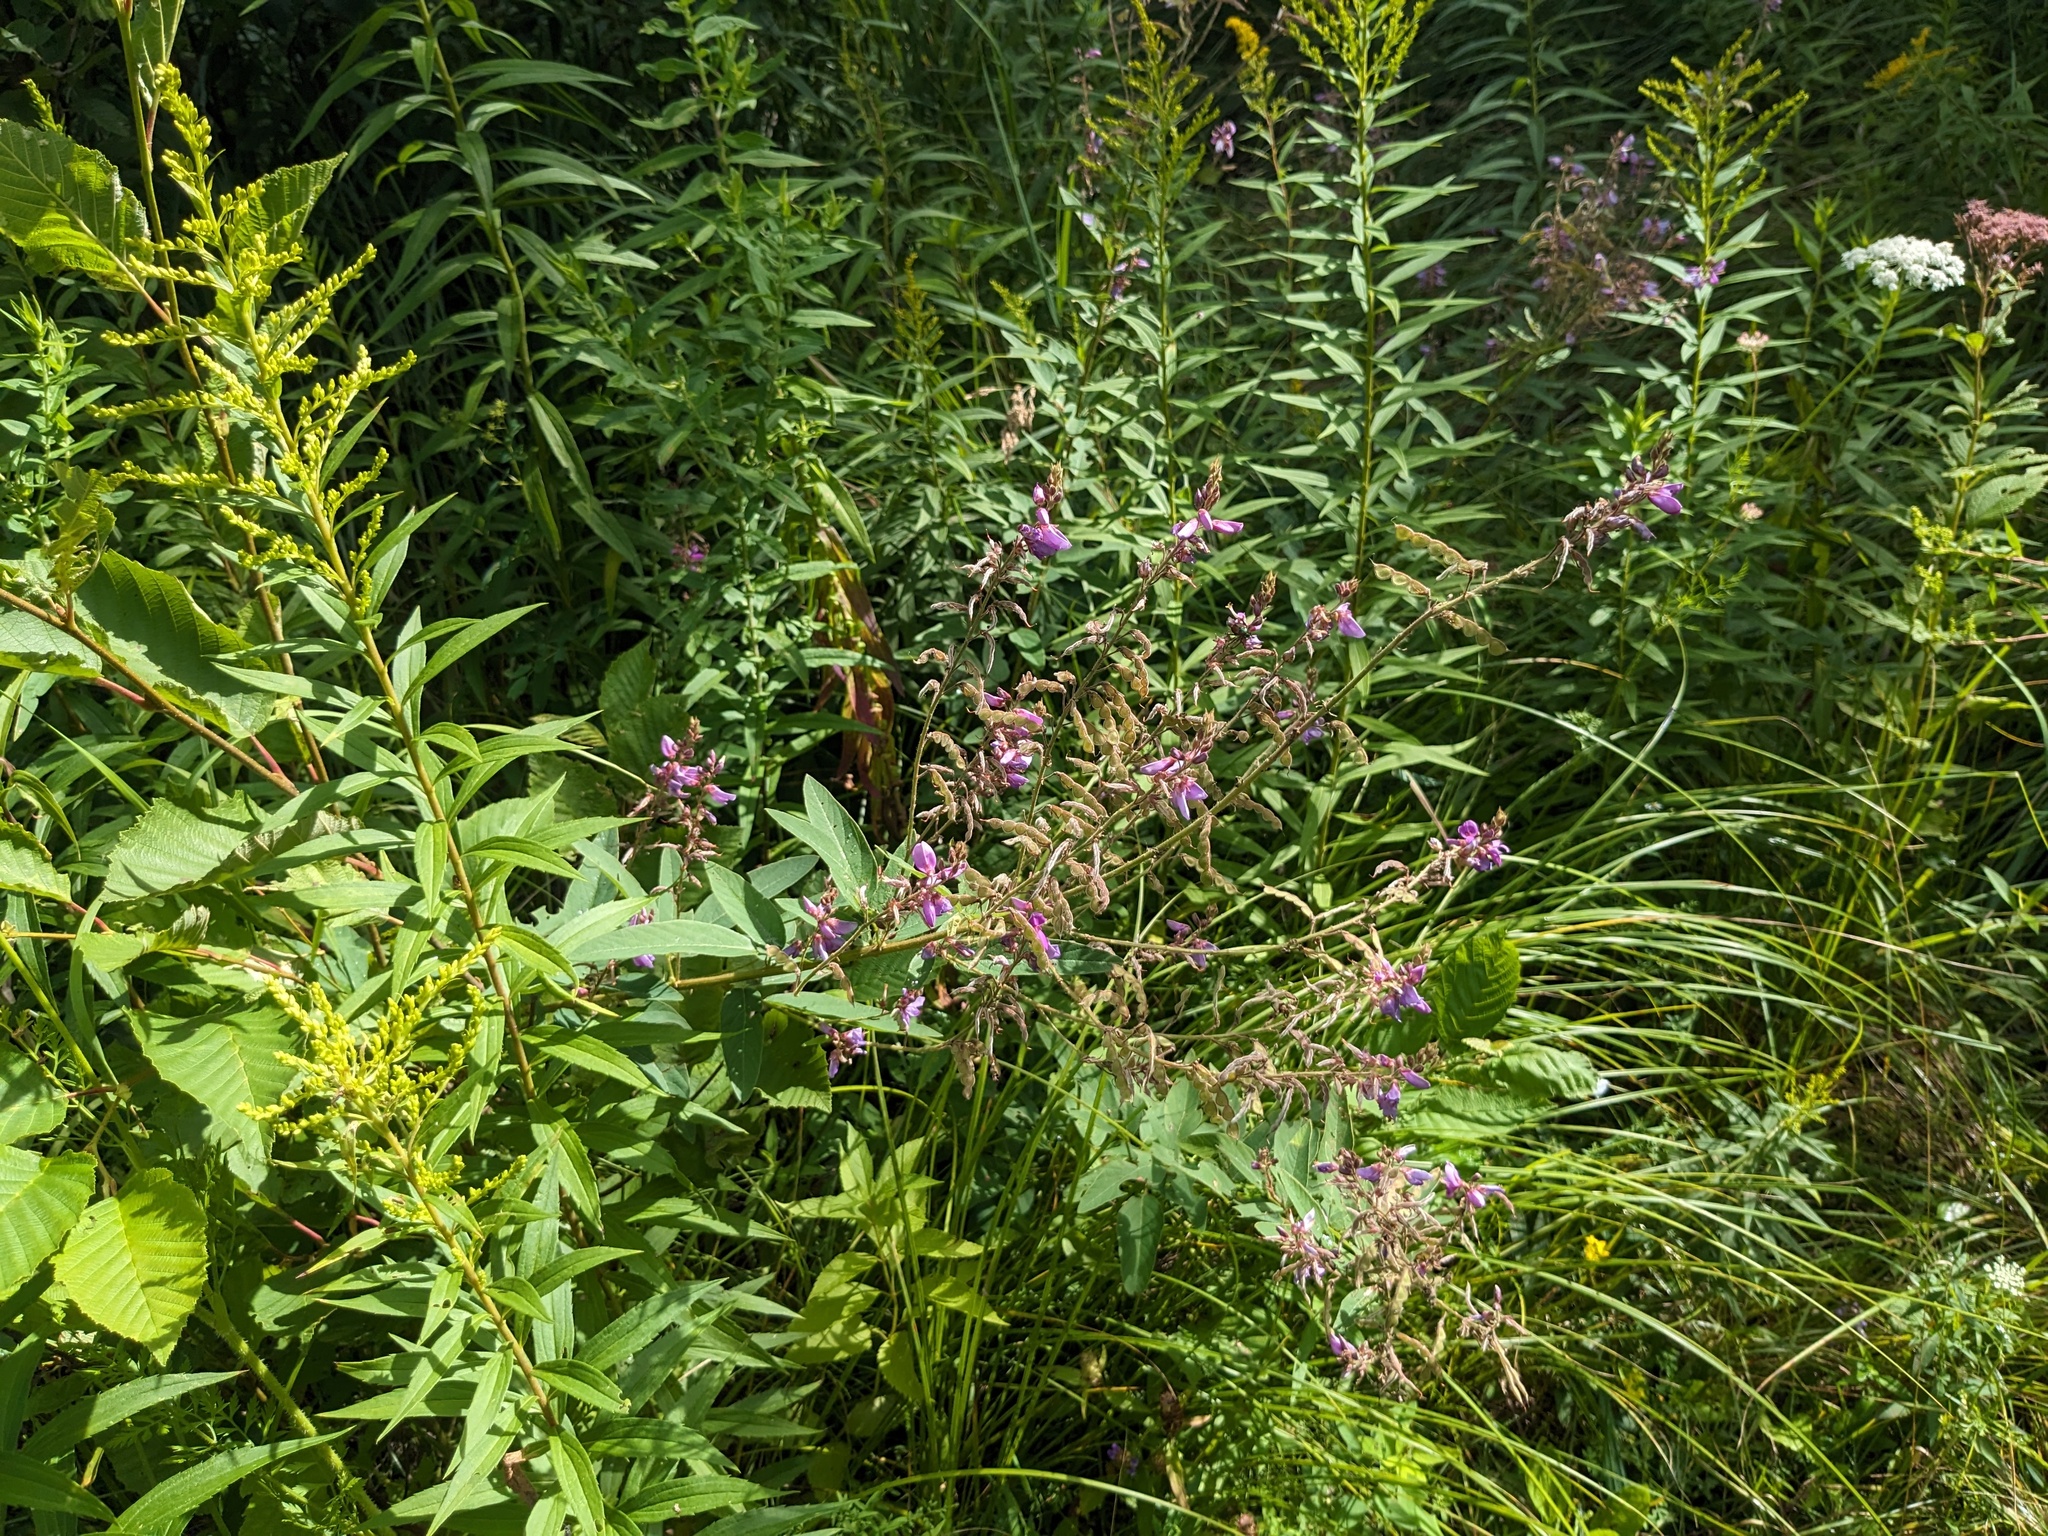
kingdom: Plantae
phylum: Tracheophyta
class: Magnoliopsida
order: Fabales
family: Fabaceae
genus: Desmodium
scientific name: Desmodium canadense
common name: Canada tick-trefoil
